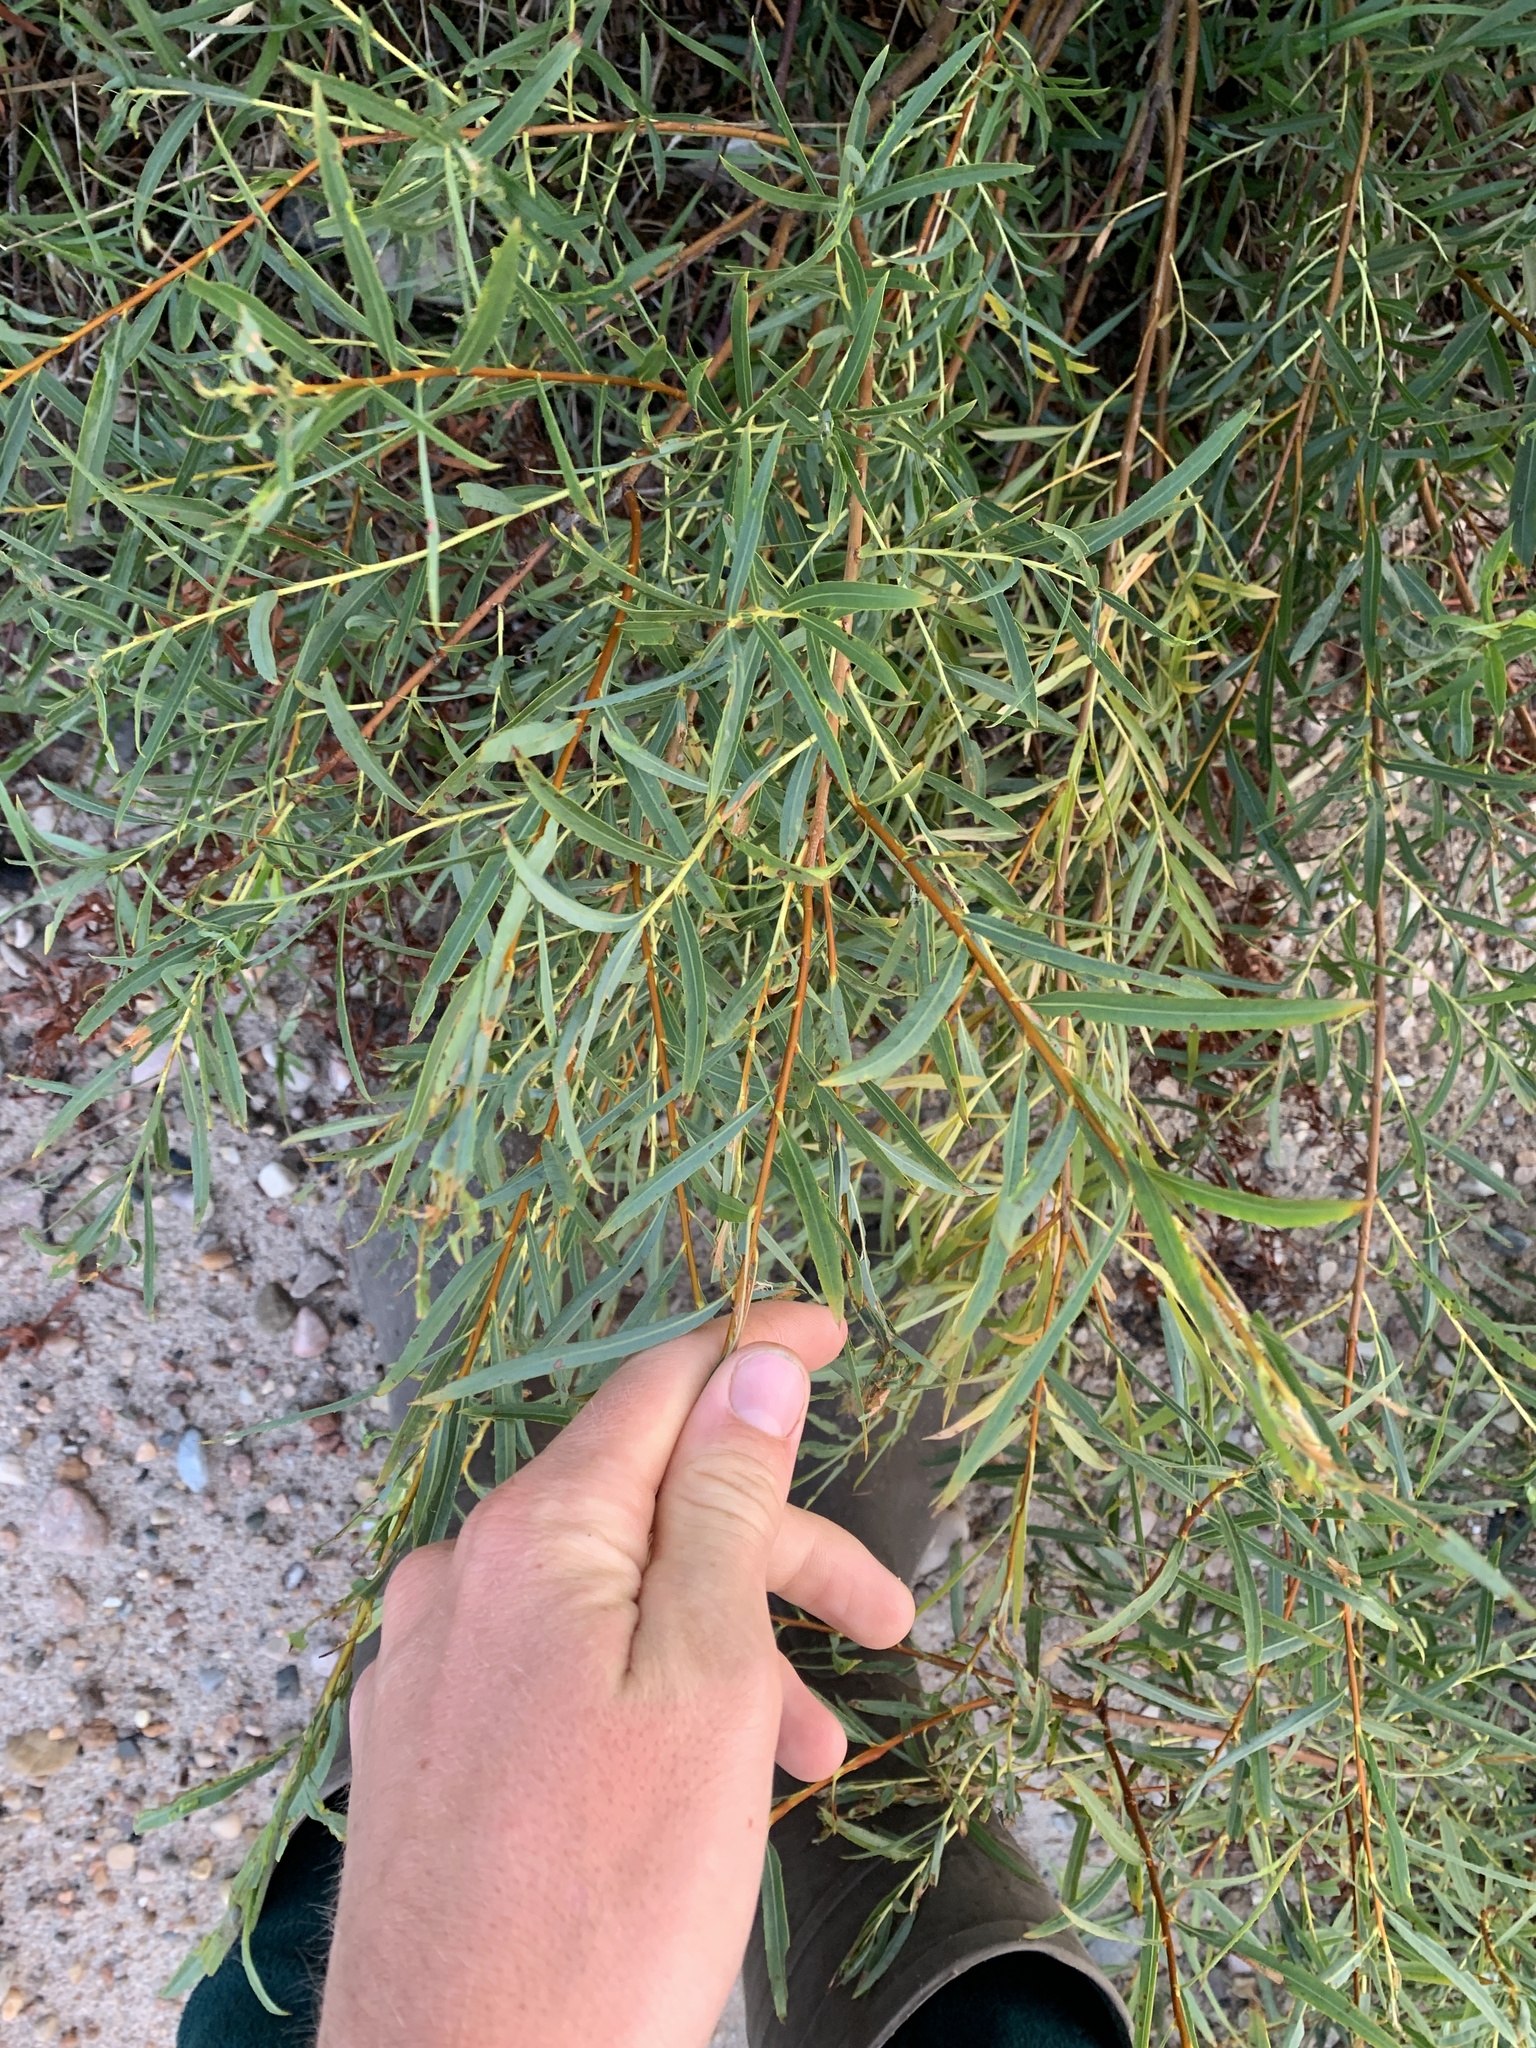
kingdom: Plantae
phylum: Tracheophyta
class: Magnoliopsida
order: Malpighiales
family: Salicaceae
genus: Salix
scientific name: Salix interior
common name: Sandbar willow
